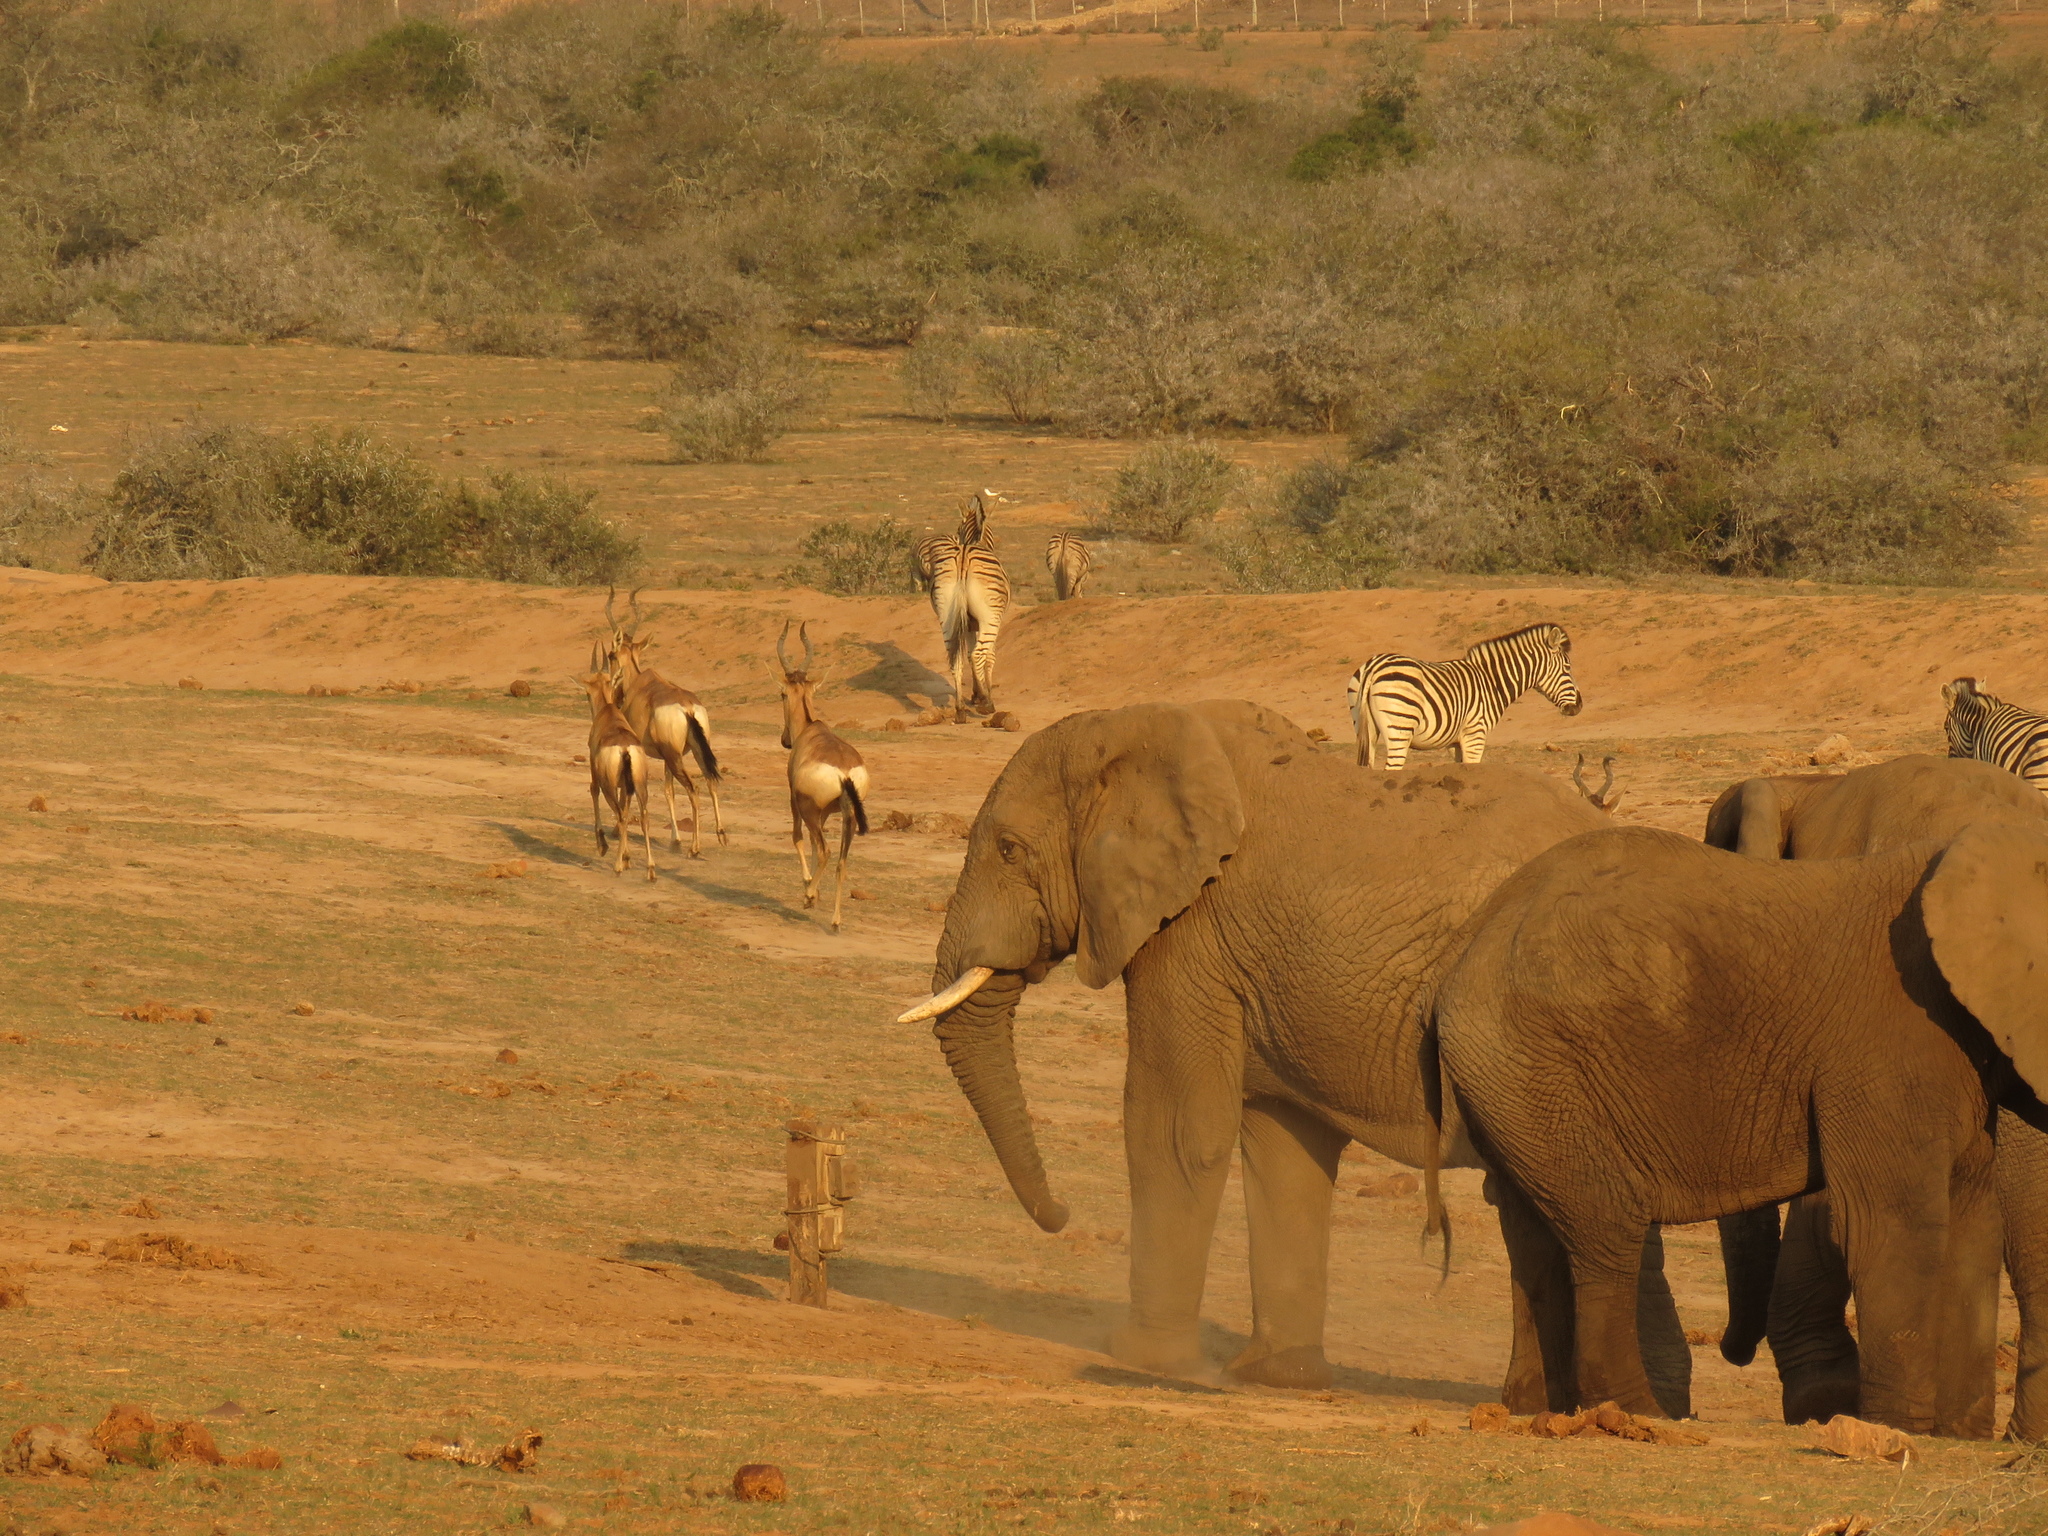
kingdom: Animalia
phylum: Chordata
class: Mammalia
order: Perissodactyla
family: Equidae
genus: Equus
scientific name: Equus quagga
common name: Plains zebra
